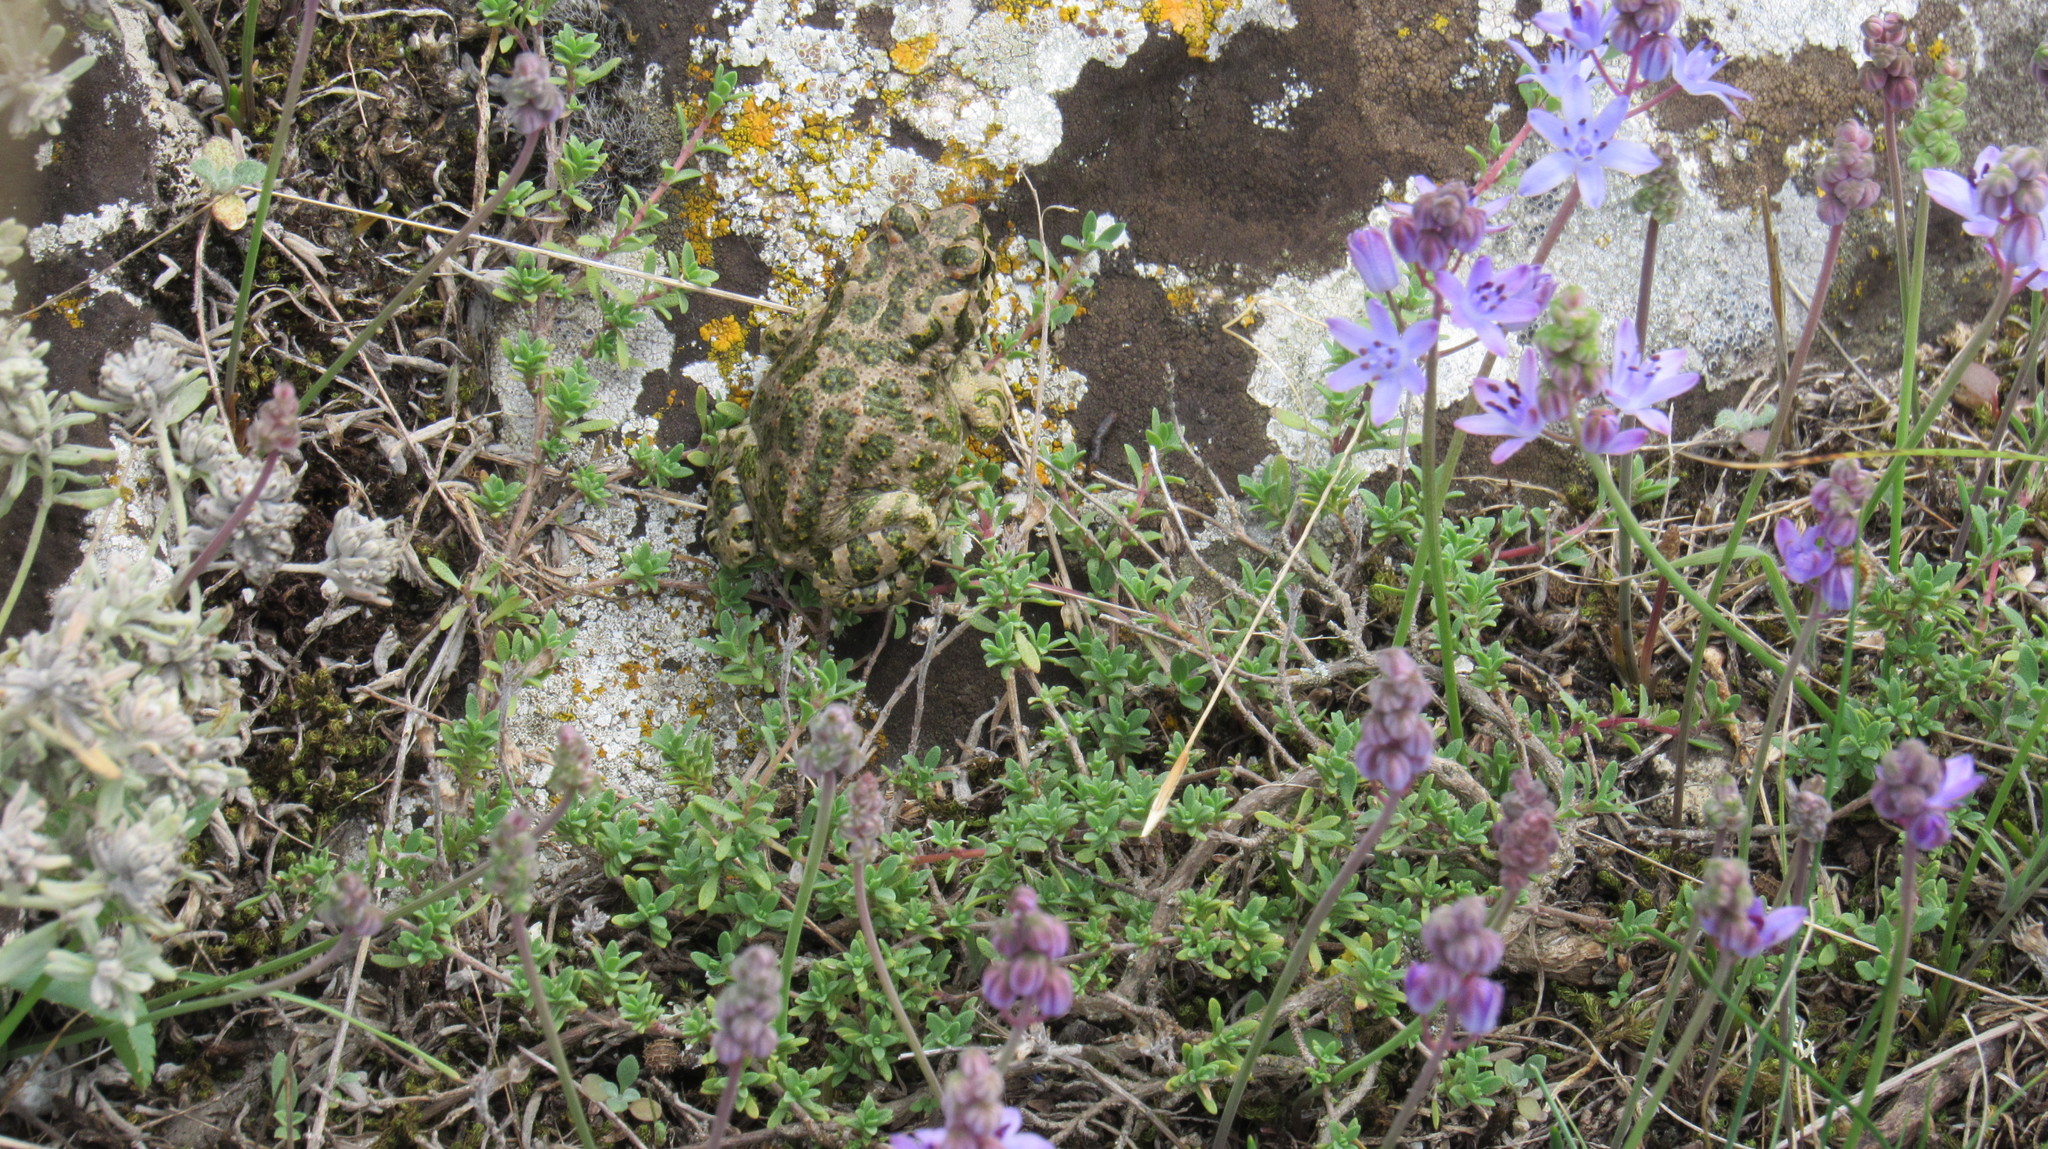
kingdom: Animalia
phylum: Chordata
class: Amphibia
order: Anura
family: Bufonidae
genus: Bufotes
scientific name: Bufotes viridis
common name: European green toad
